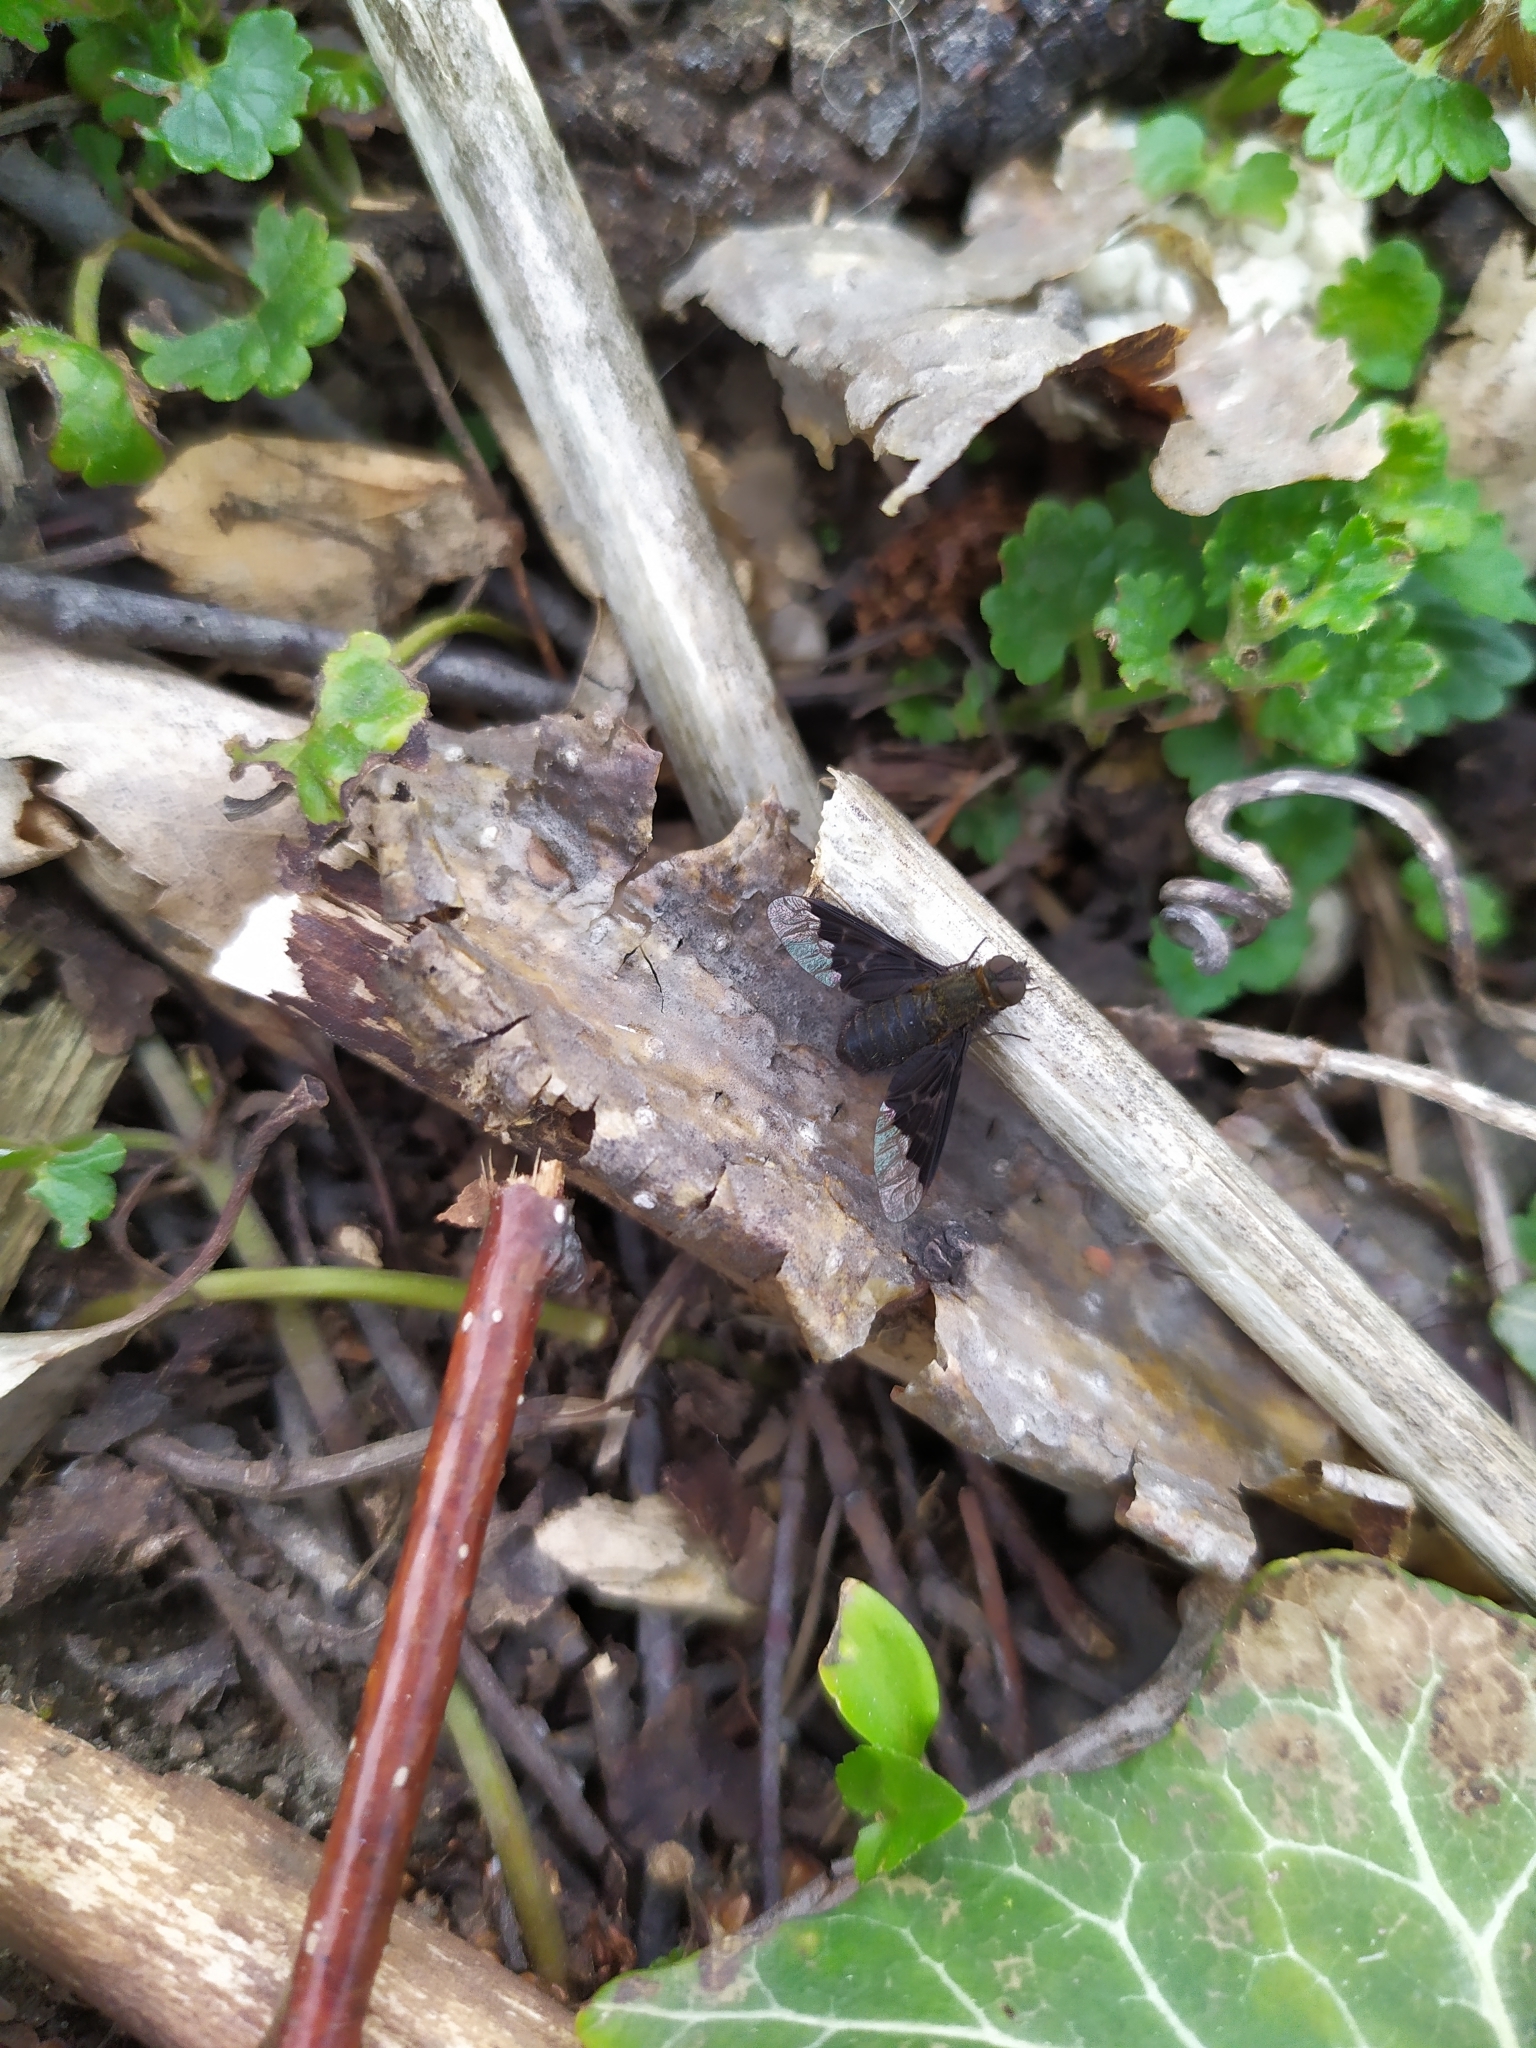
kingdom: Animalia
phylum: Arthropoda
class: Insecta
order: Diptera
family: Bombyliidae
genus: Hemipenthes
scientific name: Hemipenthes morio
